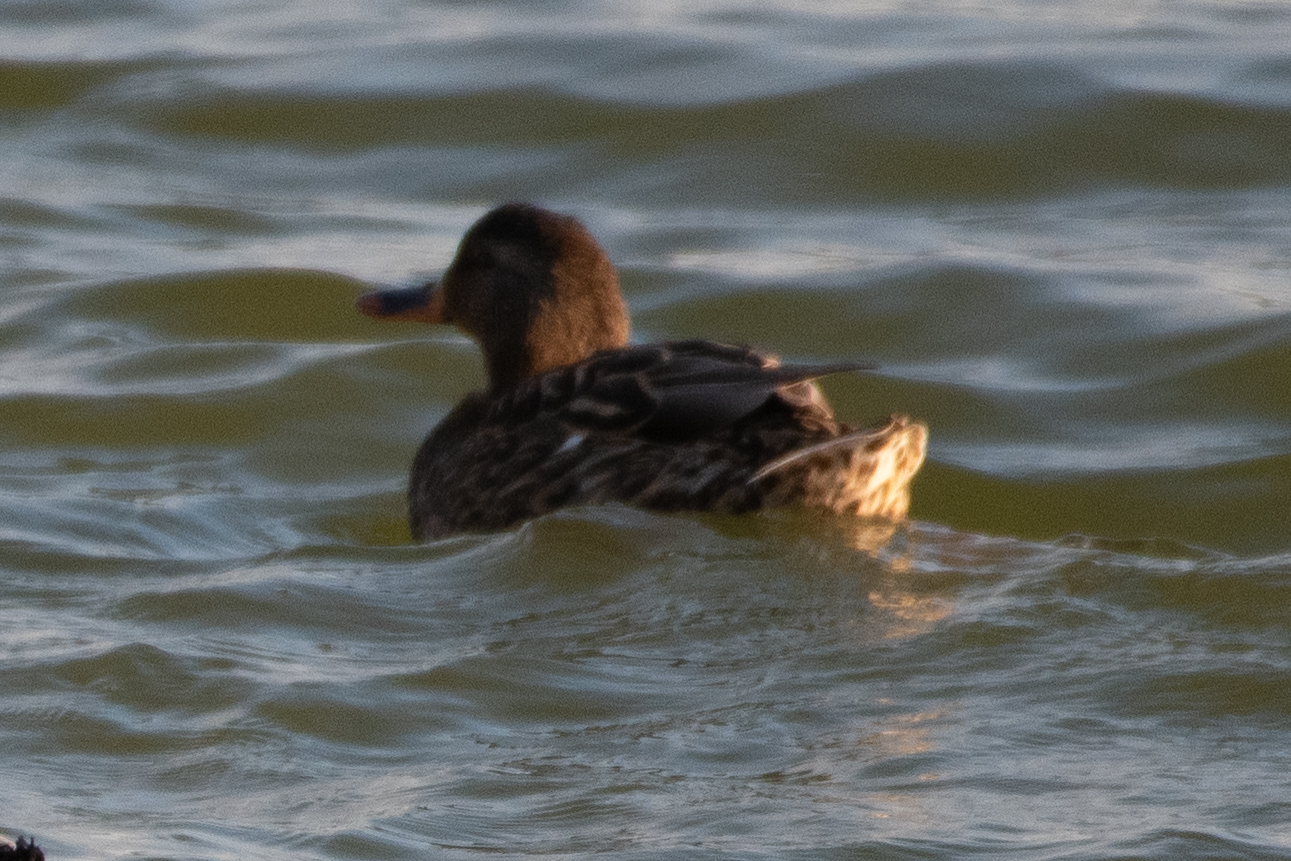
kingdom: Animalia
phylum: Chordata
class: Aves
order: Anseriformes
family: Anatidae
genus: Anas
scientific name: Anas platyrhynchos
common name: Mallard
